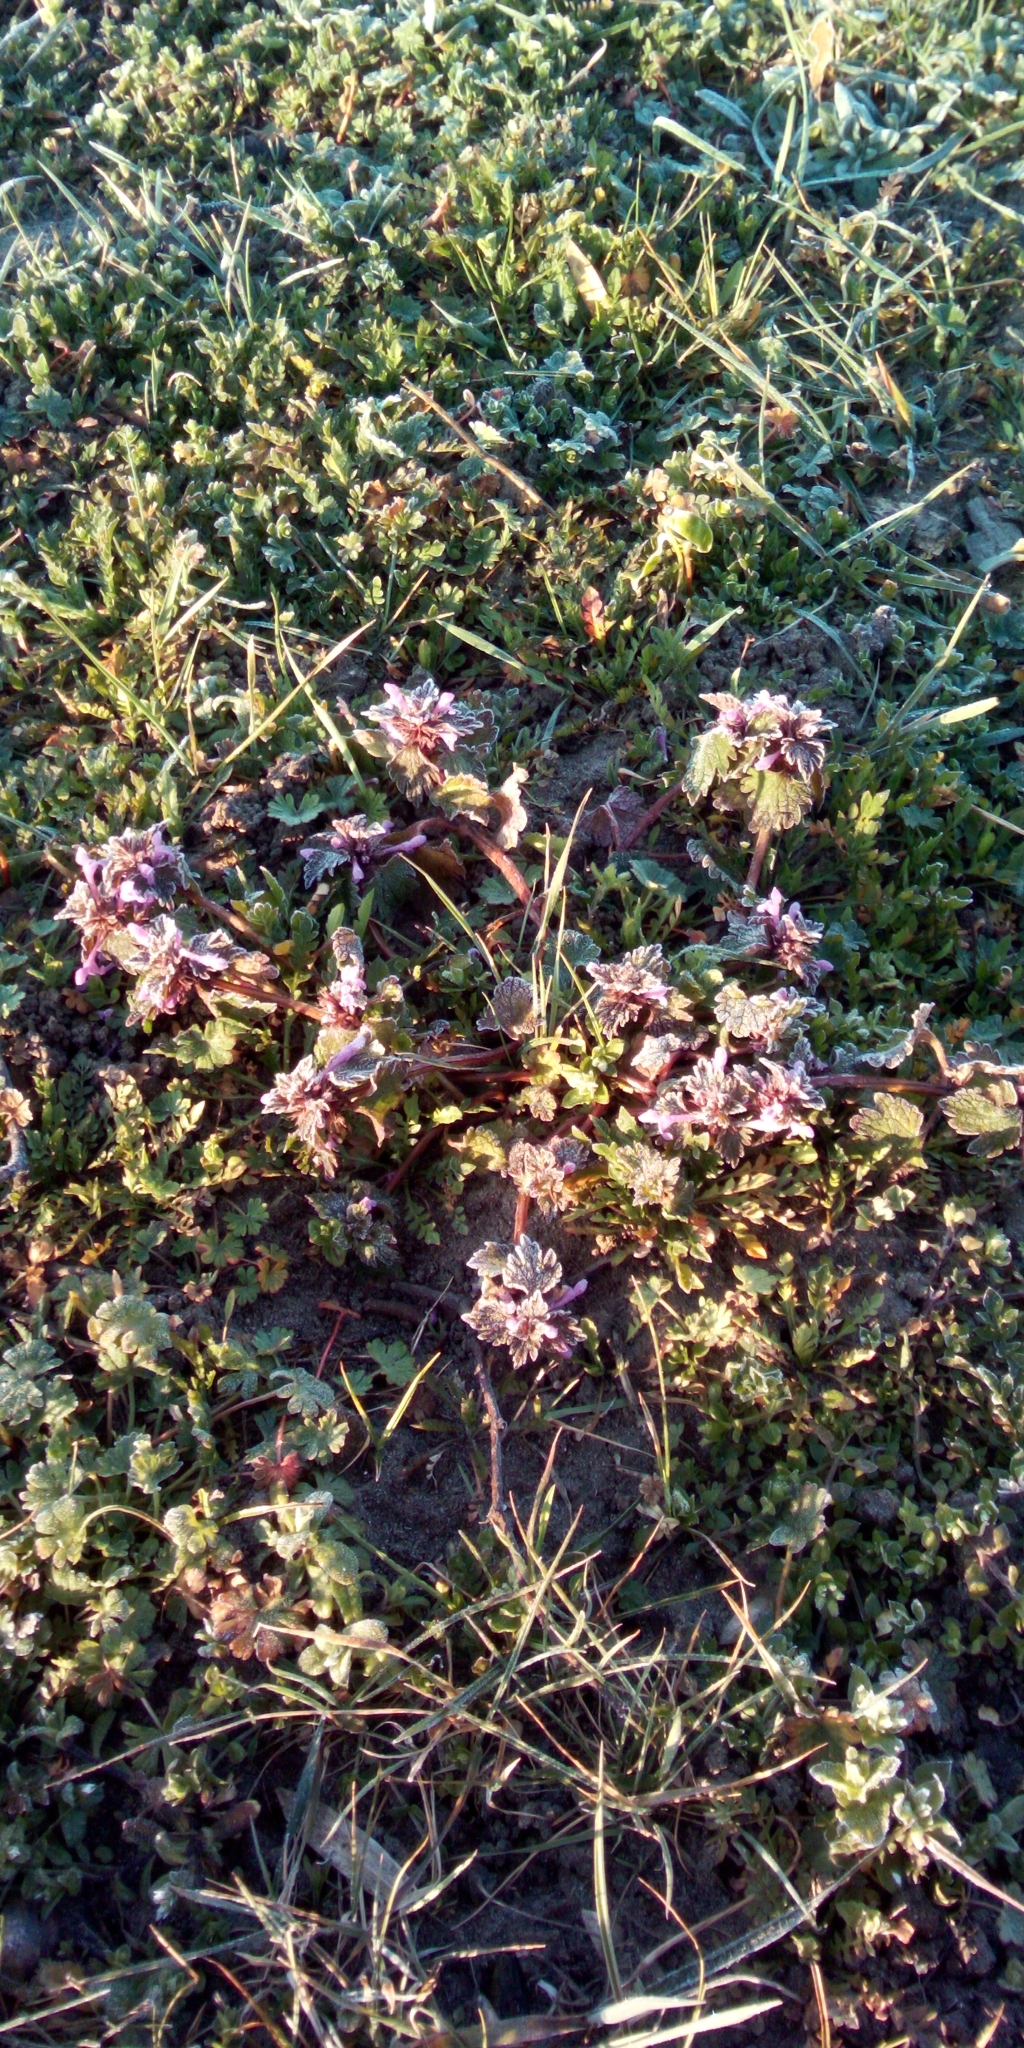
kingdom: Plantae
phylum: Tracheophyta
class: Magnoliopsida
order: Lamiales
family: Lamiaceae
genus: Lamium
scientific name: Lamium purpureum
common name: Red dead-nettle
